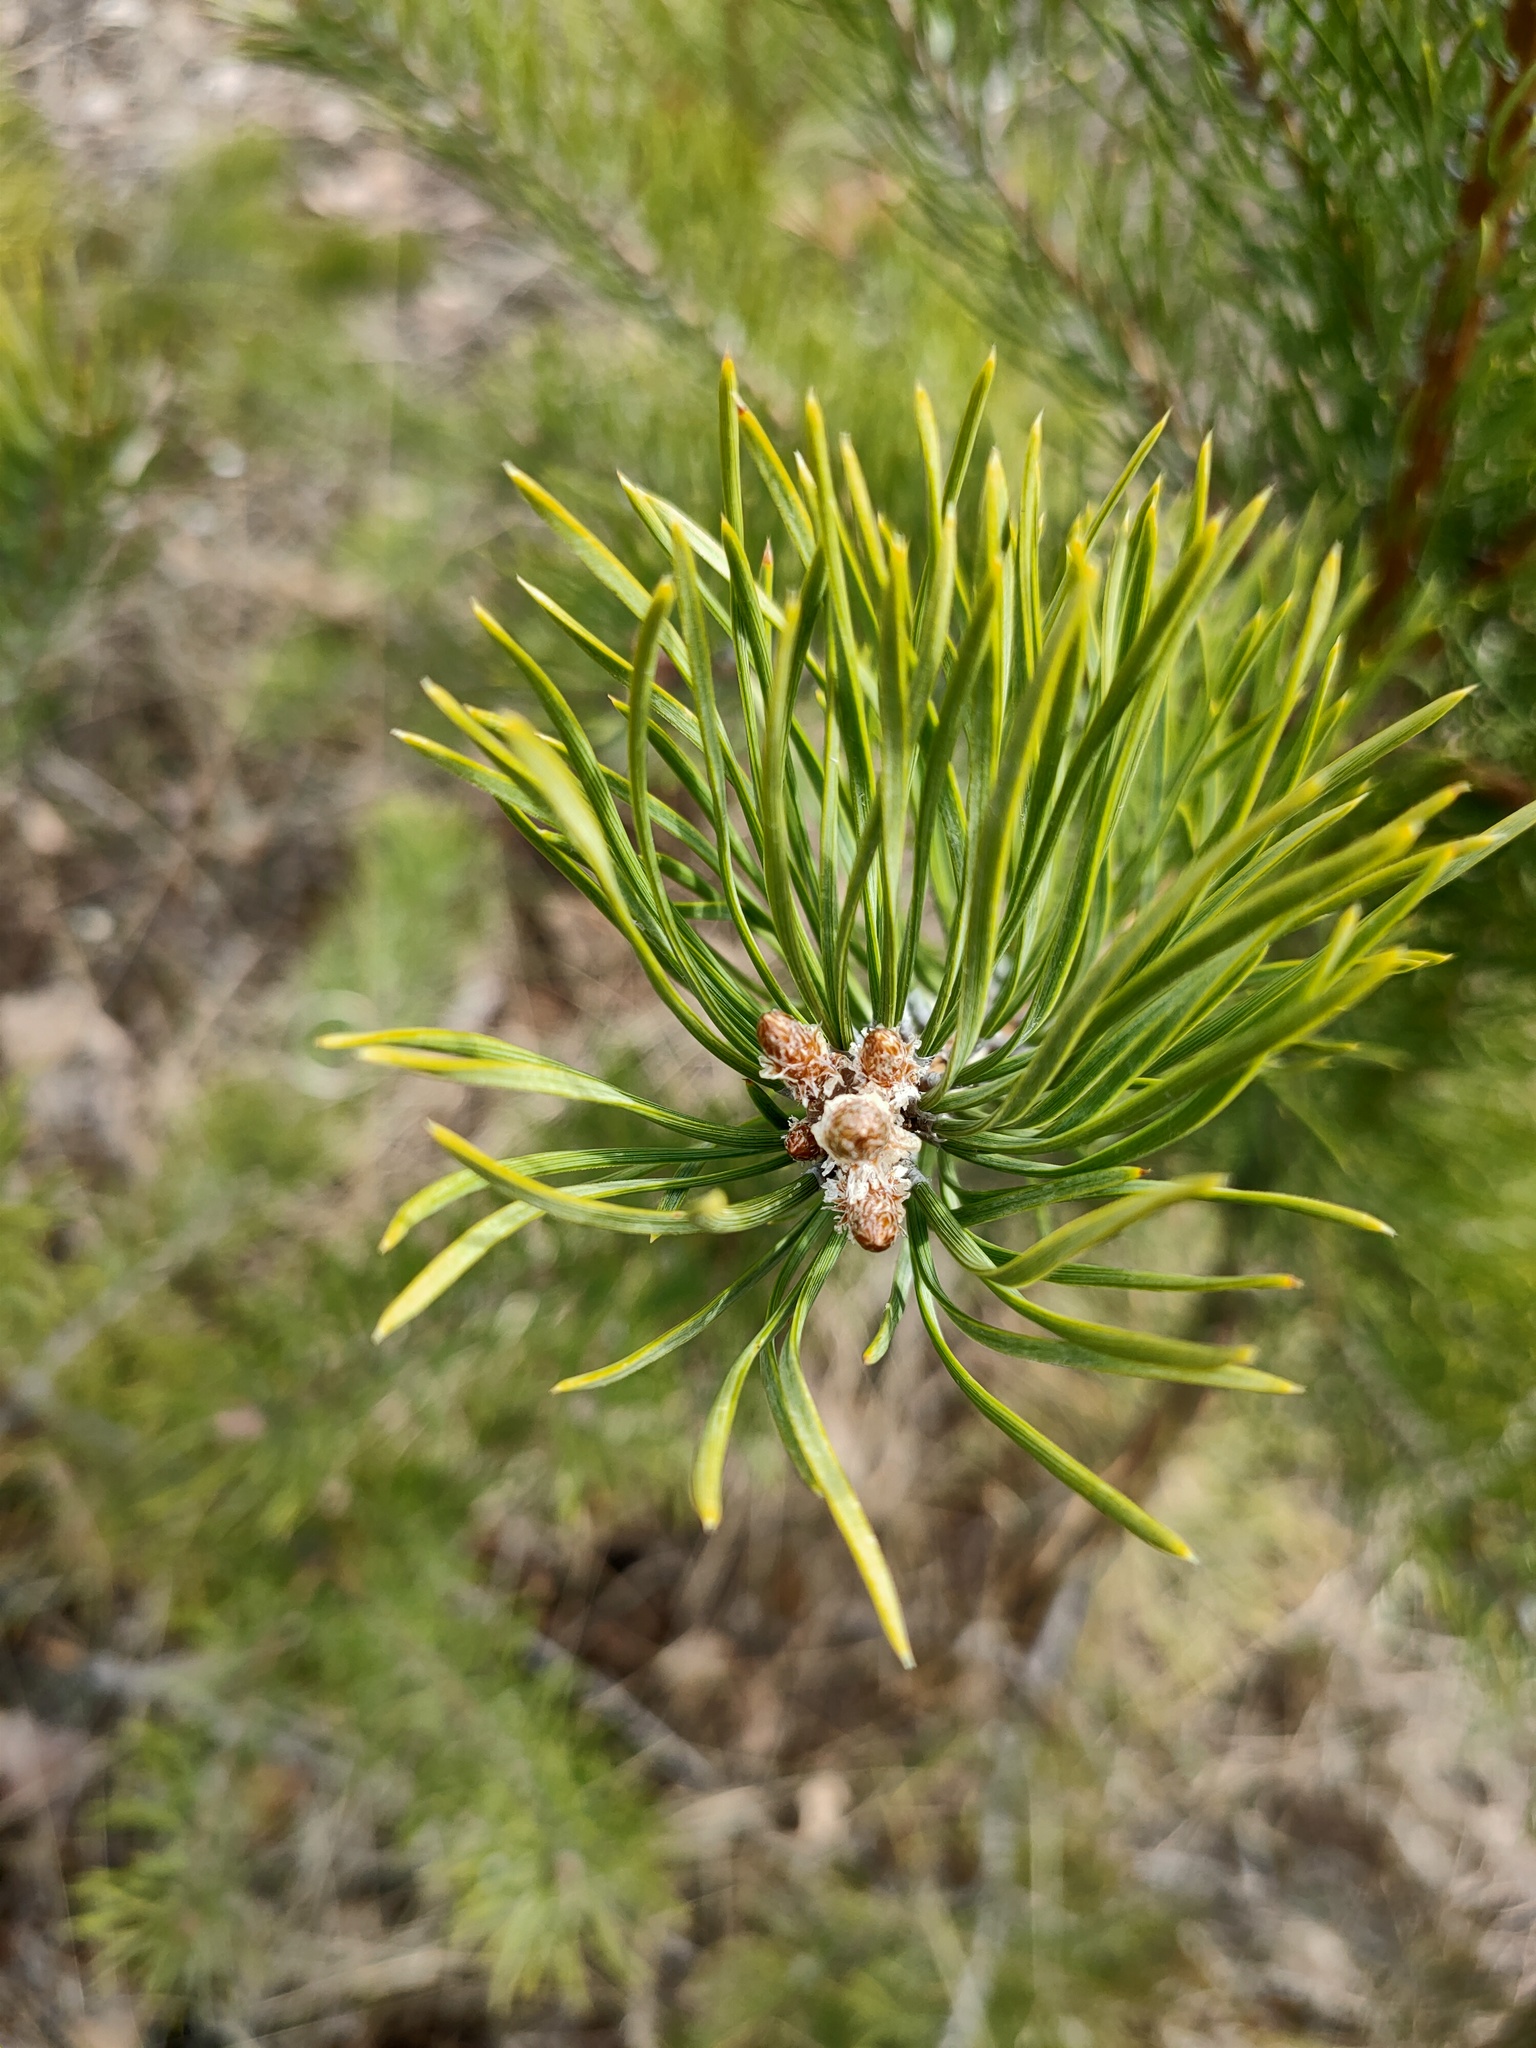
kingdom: Plantae
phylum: Tracheophyta
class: Pinopsida
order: Pinales
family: Pinaceae
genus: Pinus
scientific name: Pinus sylvestris
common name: Scots pine
